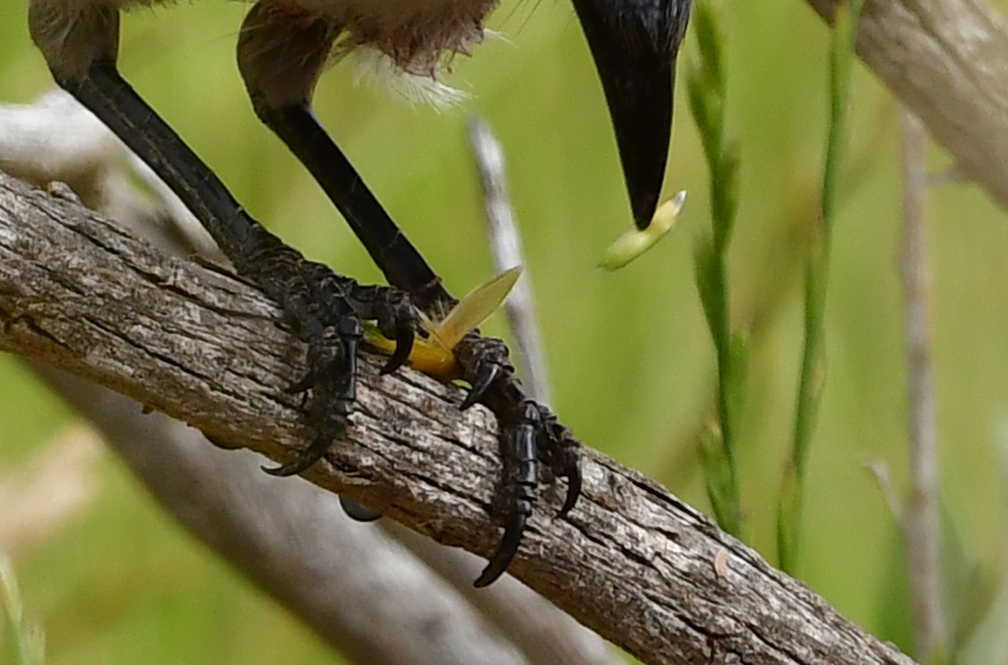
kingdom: Animalia
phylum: Chordata
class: Aves
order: Passeriformes
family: Corvidae
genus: Aphelocoma
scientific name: Aphelocoma californica
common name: California scrub-jay
